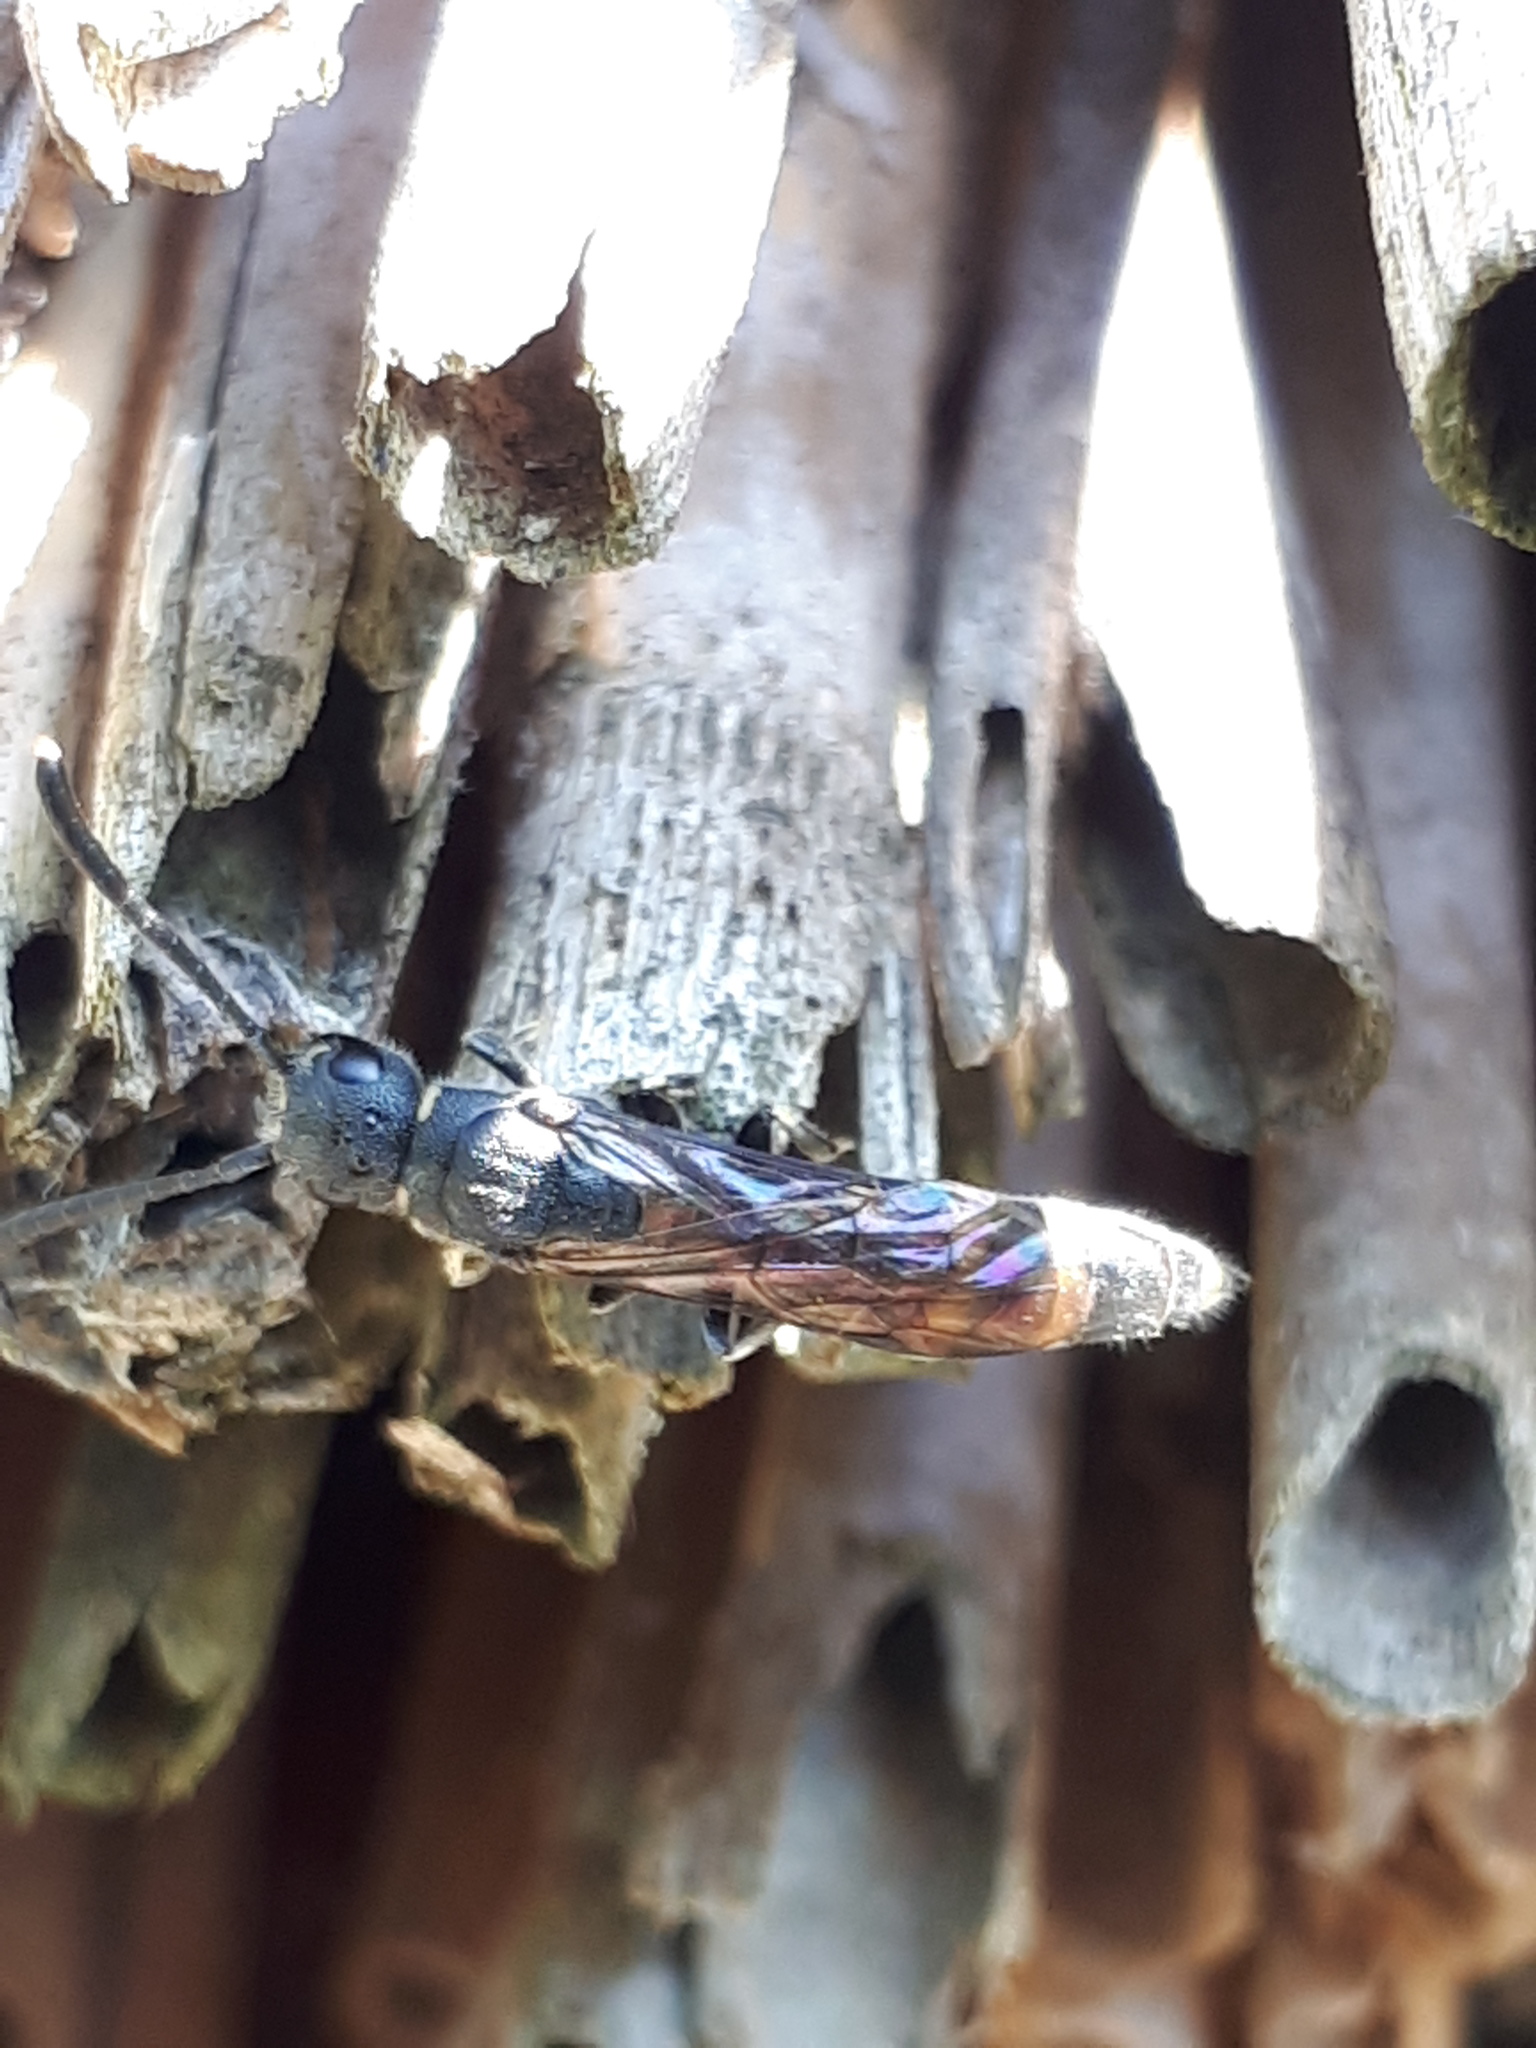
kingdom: Animalia
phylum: Arthropoda
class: Insecta
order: Hymenoptera
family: Sapygidae
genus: Monosapyga
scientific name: Monosapyga clavicornis
